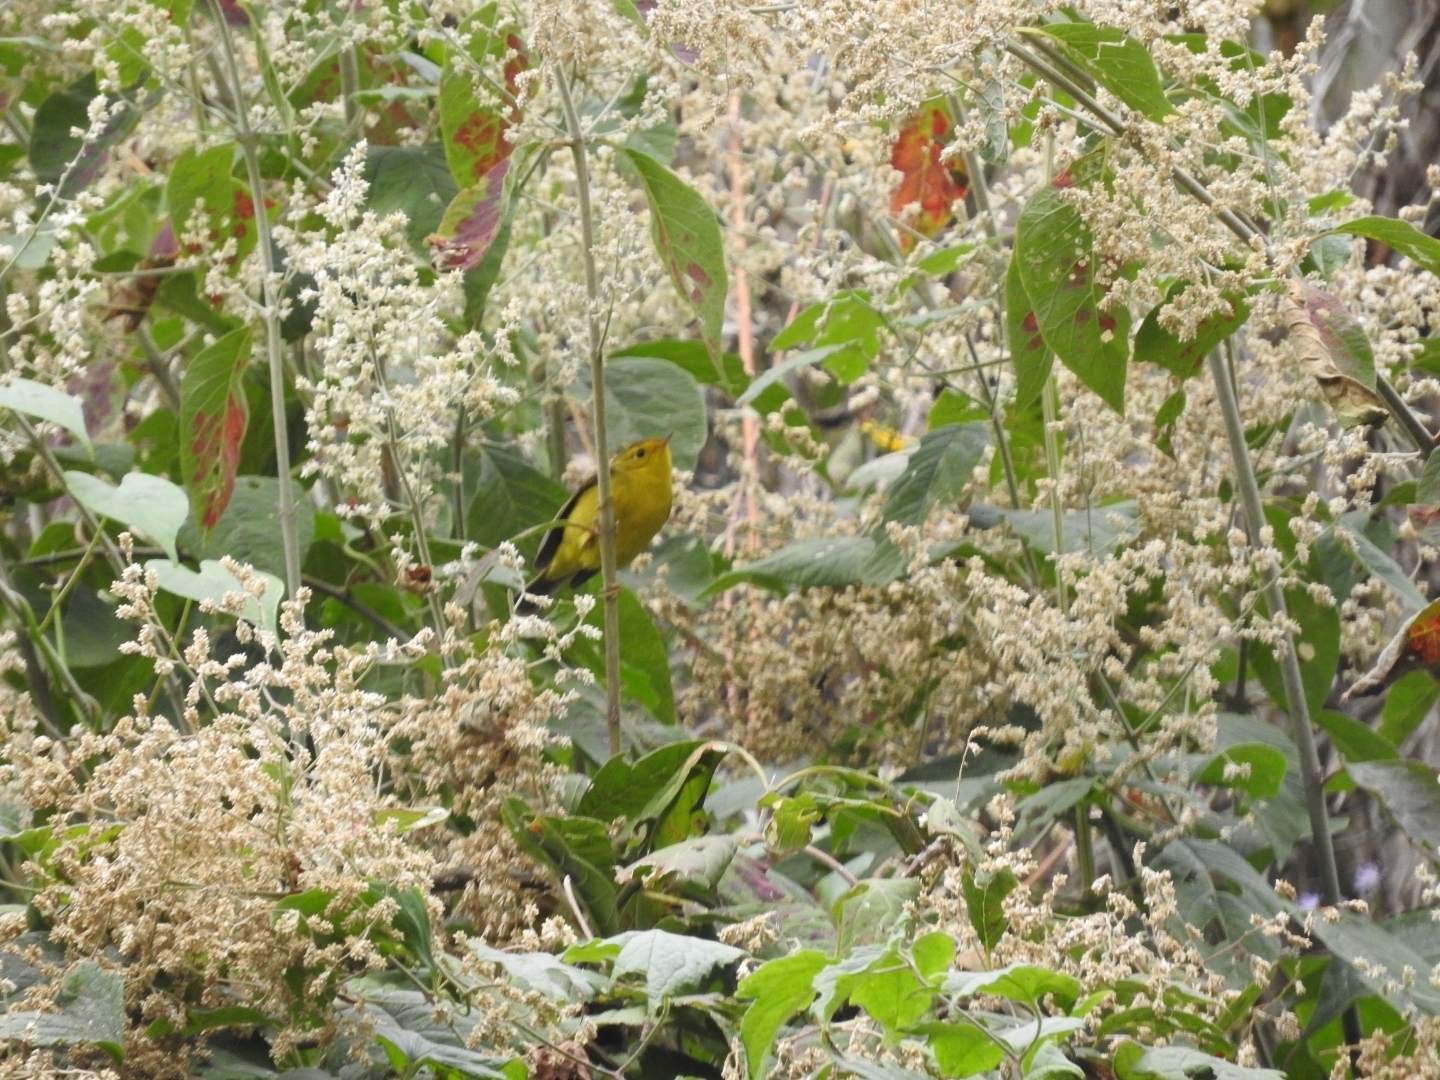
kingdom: Animalia
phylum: Chordata
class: Aves
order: Passeriformes
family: Parulidae
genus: Cardellina
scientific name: Cardellina pusilla
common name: Wilson's warbler
